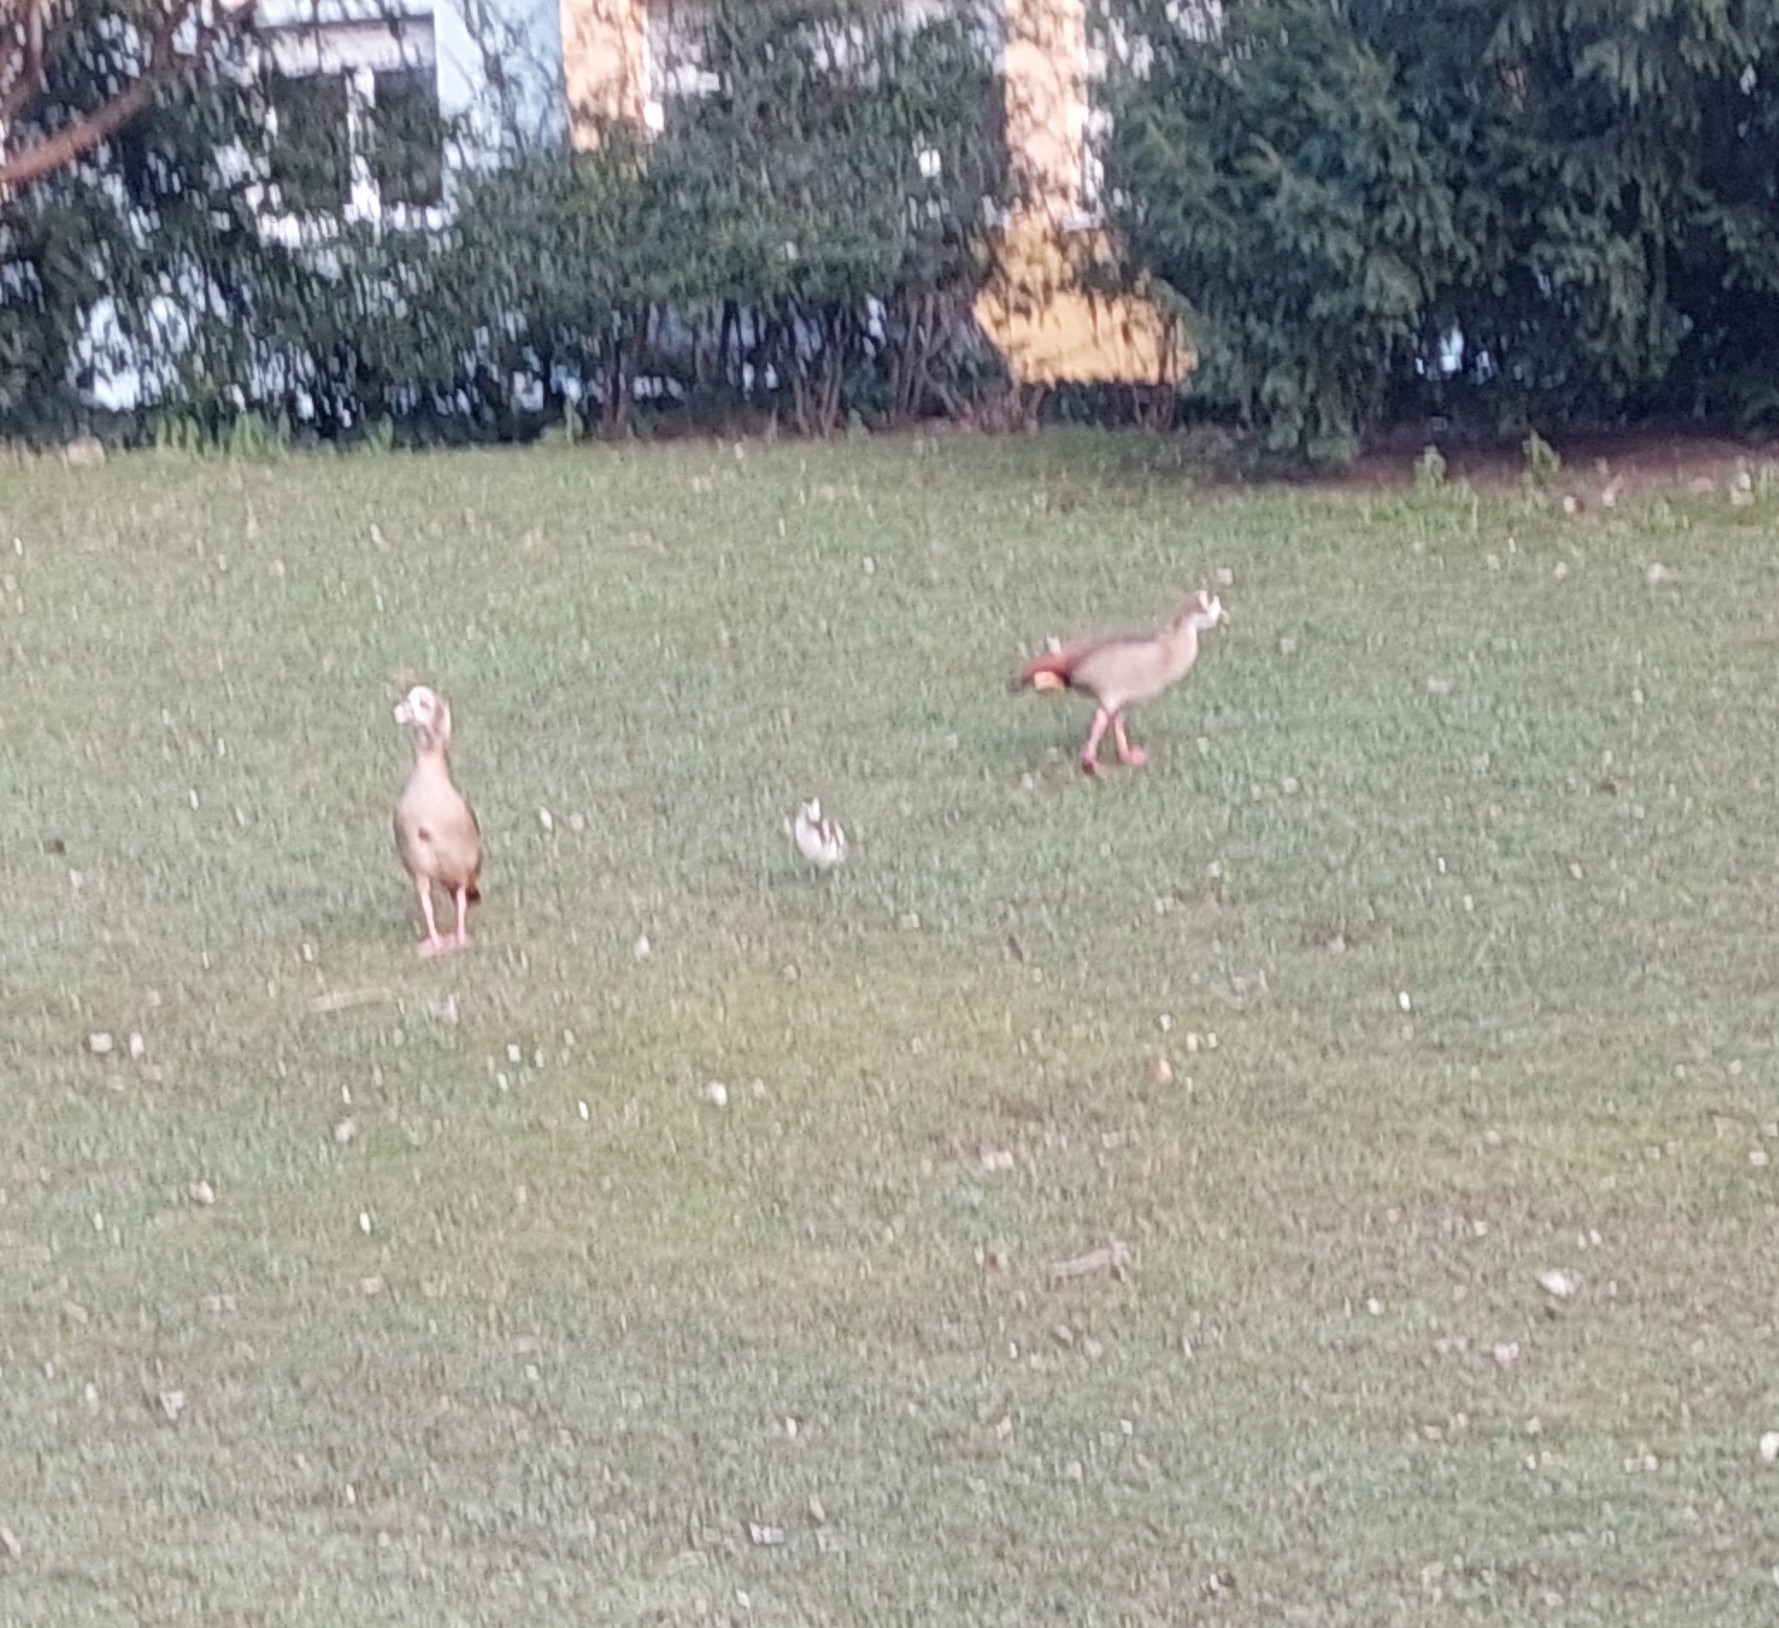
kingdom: Animalia
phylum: Chordata
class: Aves
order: Anseriformes
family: Anatidae
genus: Alopochen
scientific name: Alopochen aegyptiaca
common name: Egyptian goose
